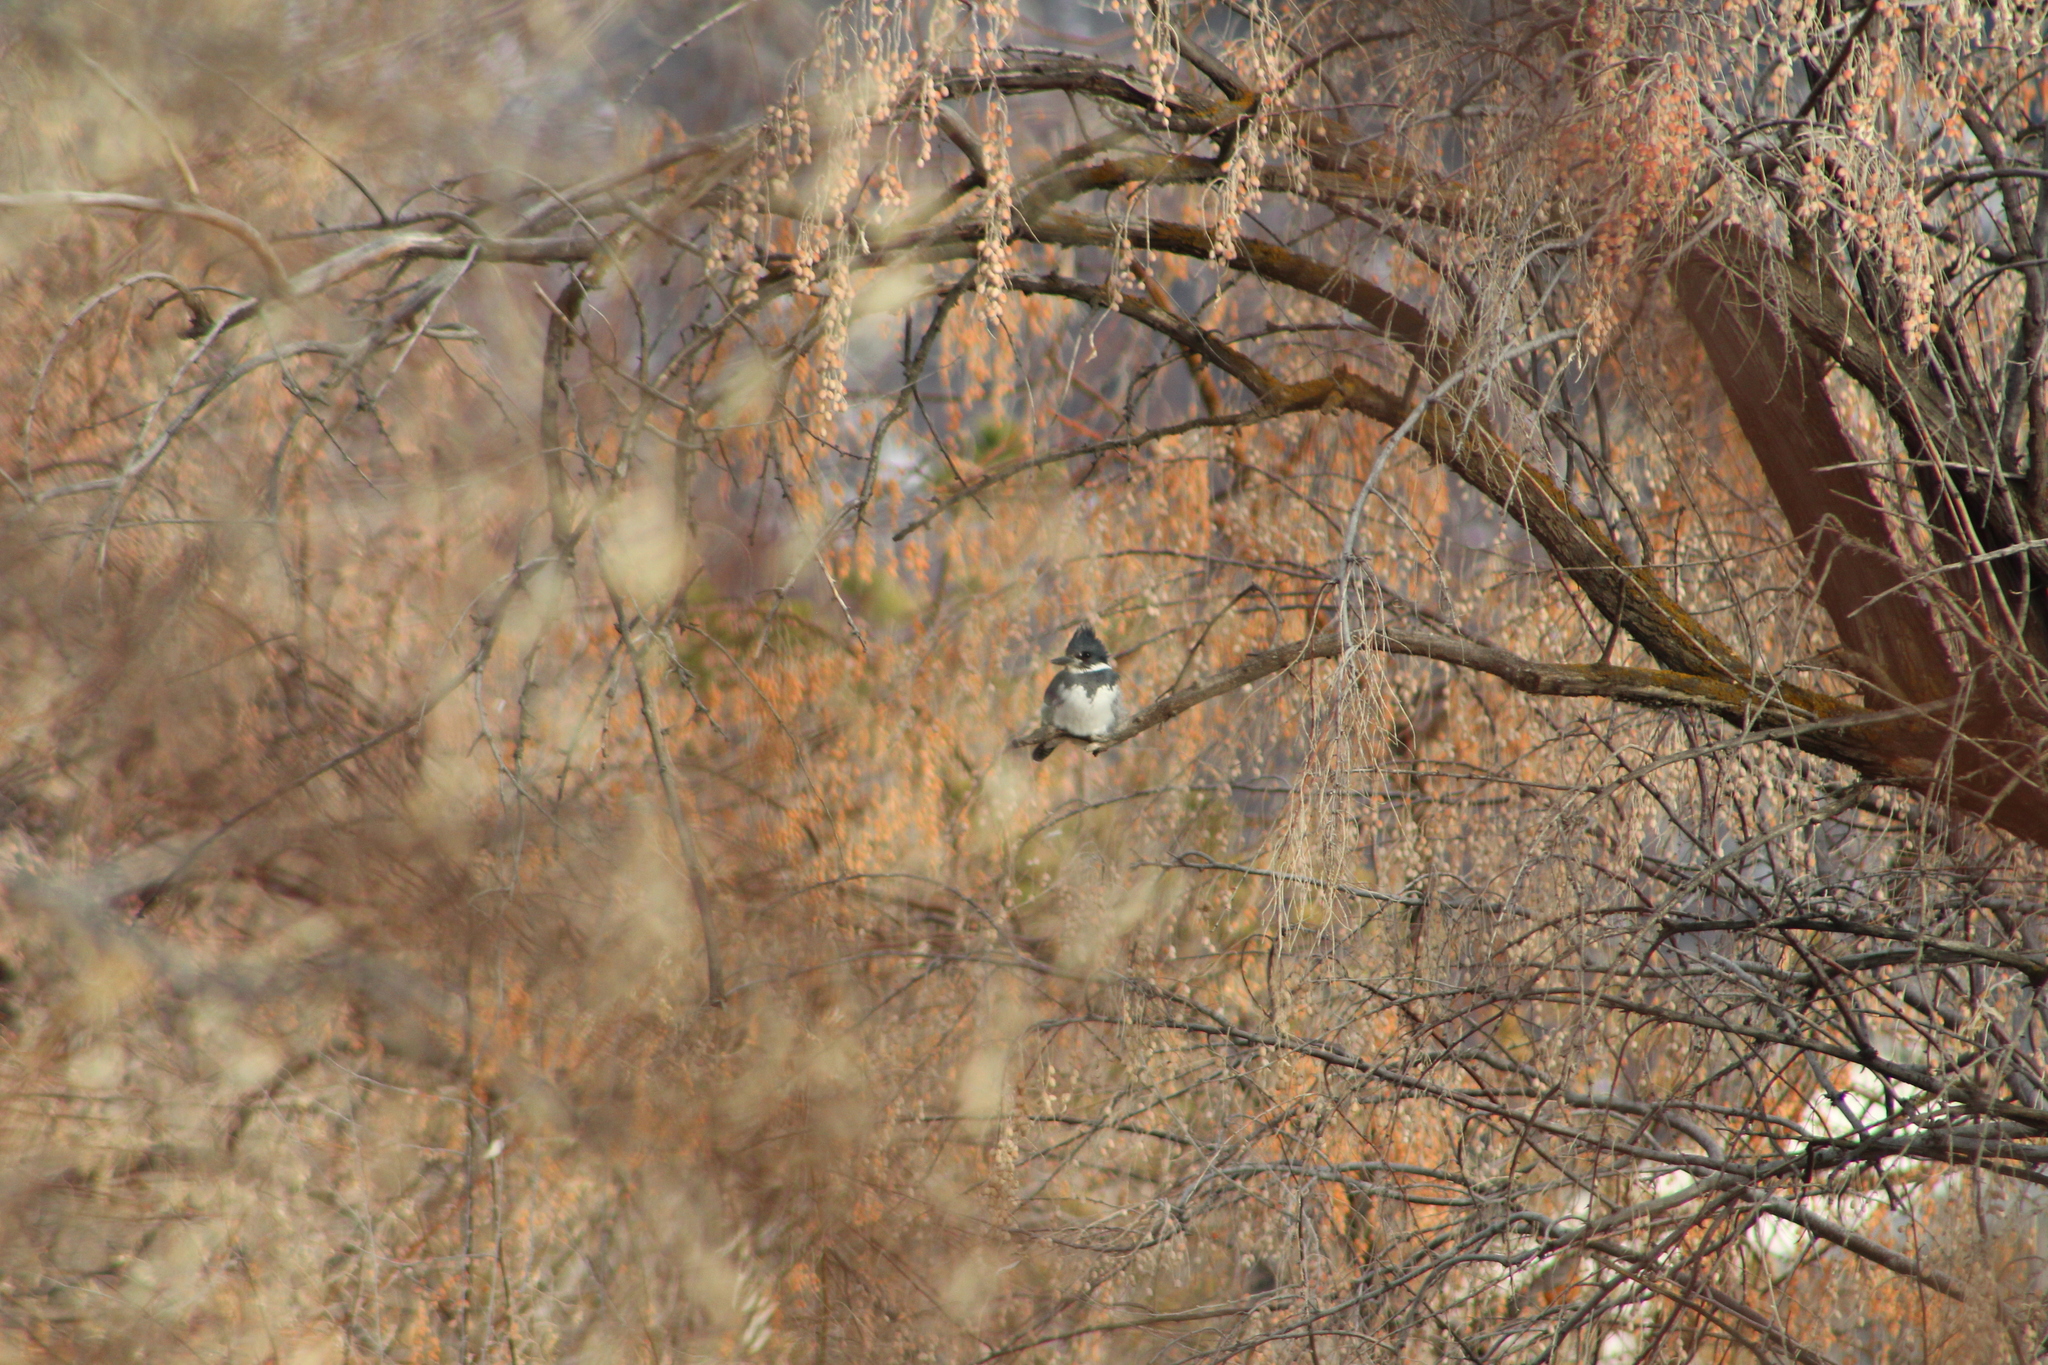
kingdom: Animalia
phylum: Chordata
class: Aves
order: Coraciiformes
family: Alcedinidae
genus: Megaceryle
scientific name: Megaceryle alcyon
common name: Belted kingfisher
